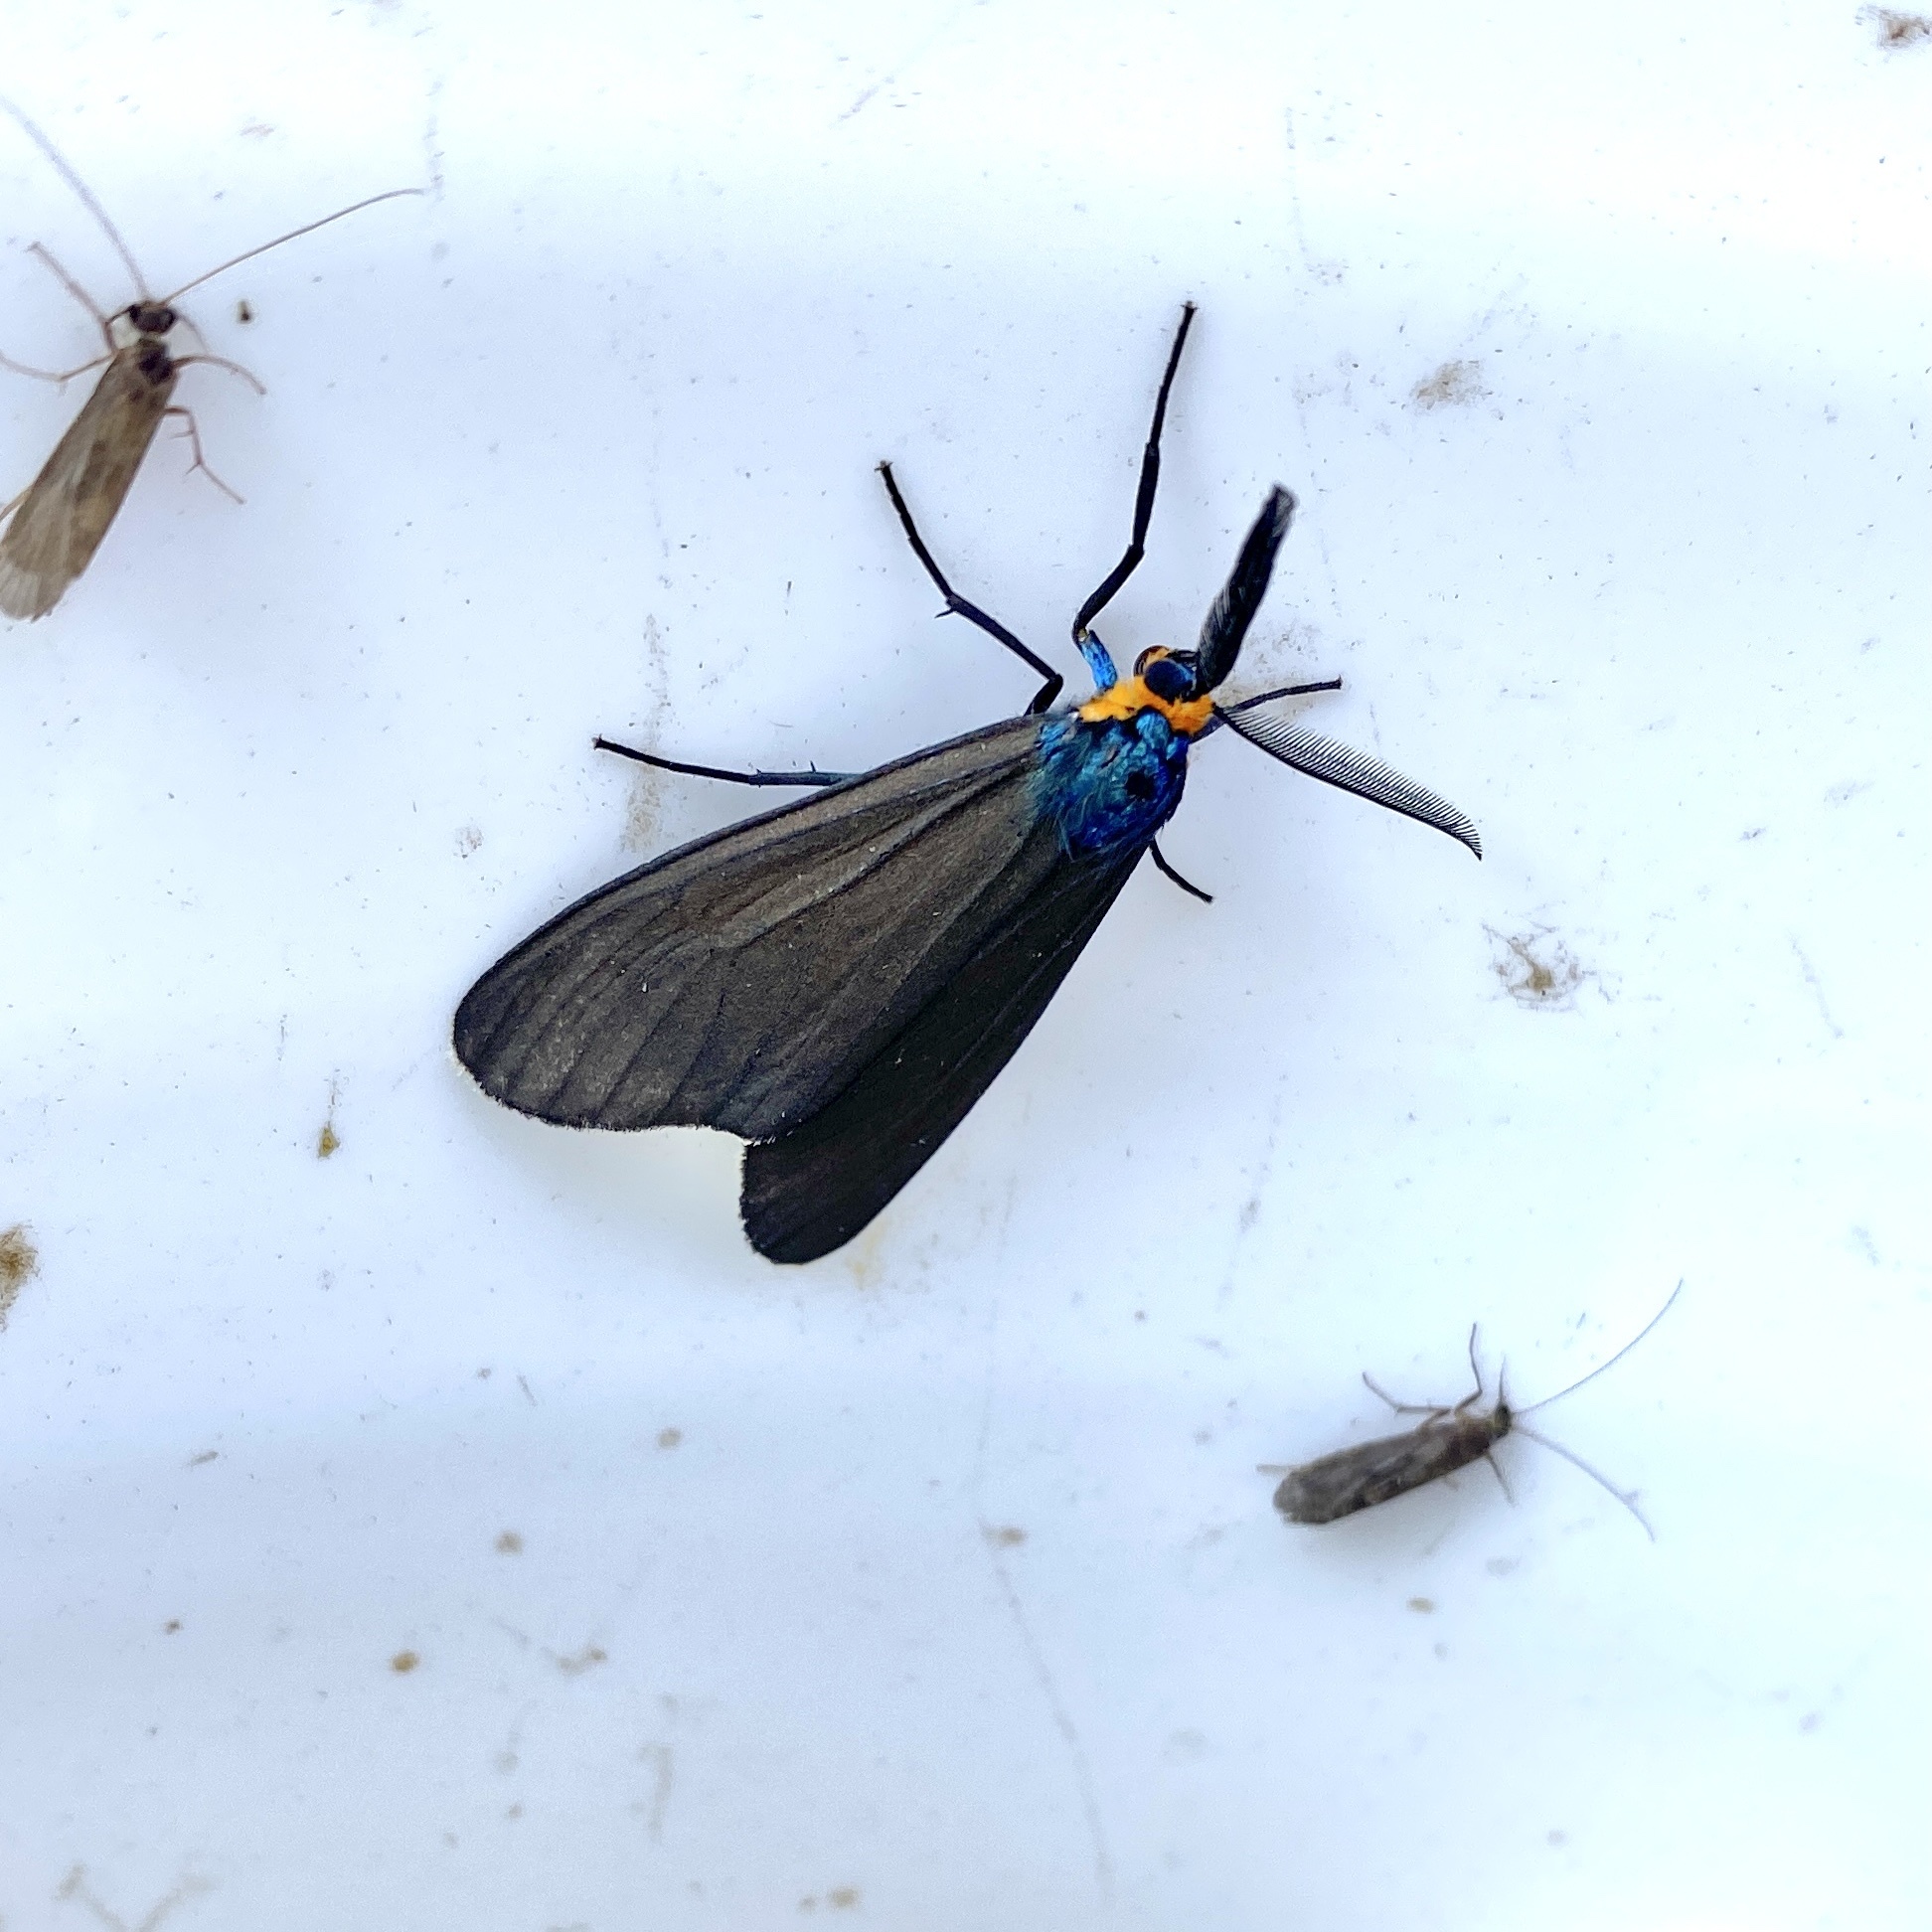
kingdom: Animalia
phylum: Arthropoda
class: Insecta
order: Lepidoptera
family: Erebidae
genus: Ctenucha
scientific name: Ctenucha virginica
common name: Virginia ctenucha moth
